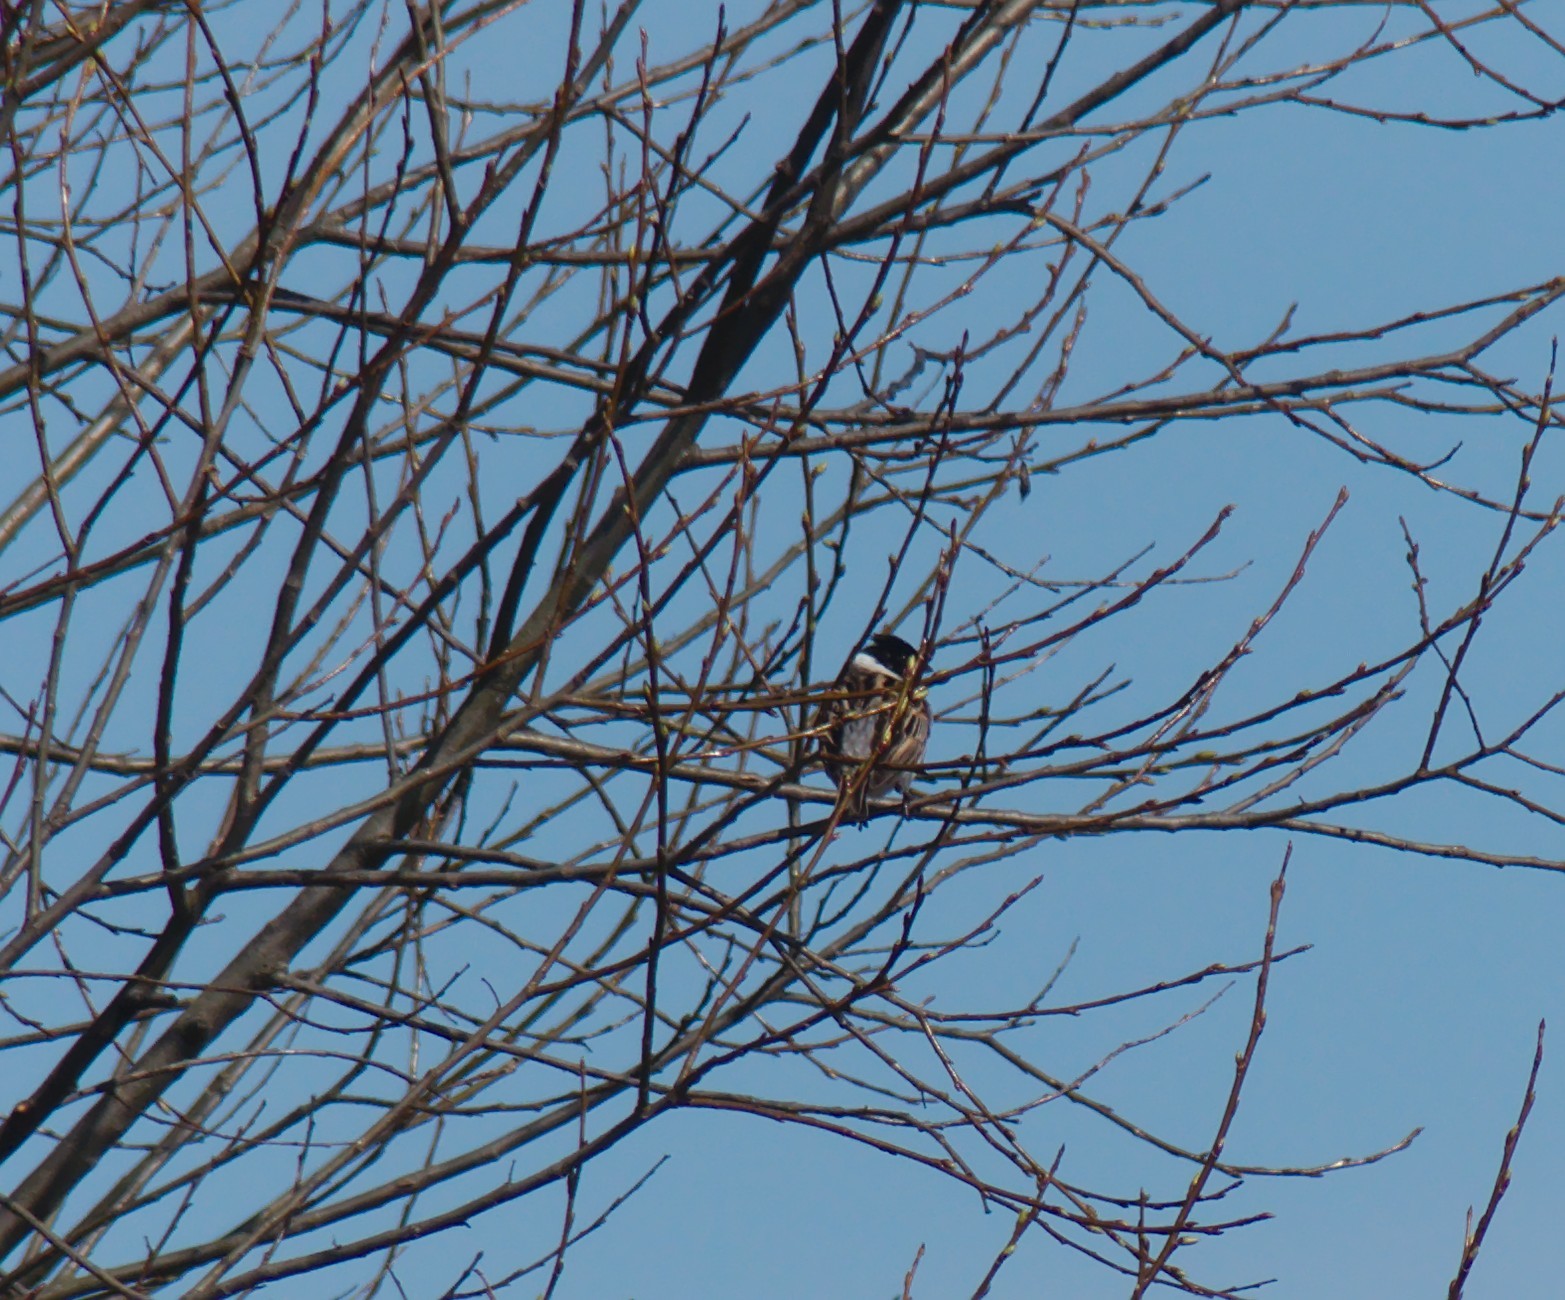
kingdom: Animalia
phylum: Chordata
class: Aves
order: Passeriformes
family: Emberizidae
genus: Emberiza
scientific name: Emberiza schoeniclus
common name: Reed bunting
